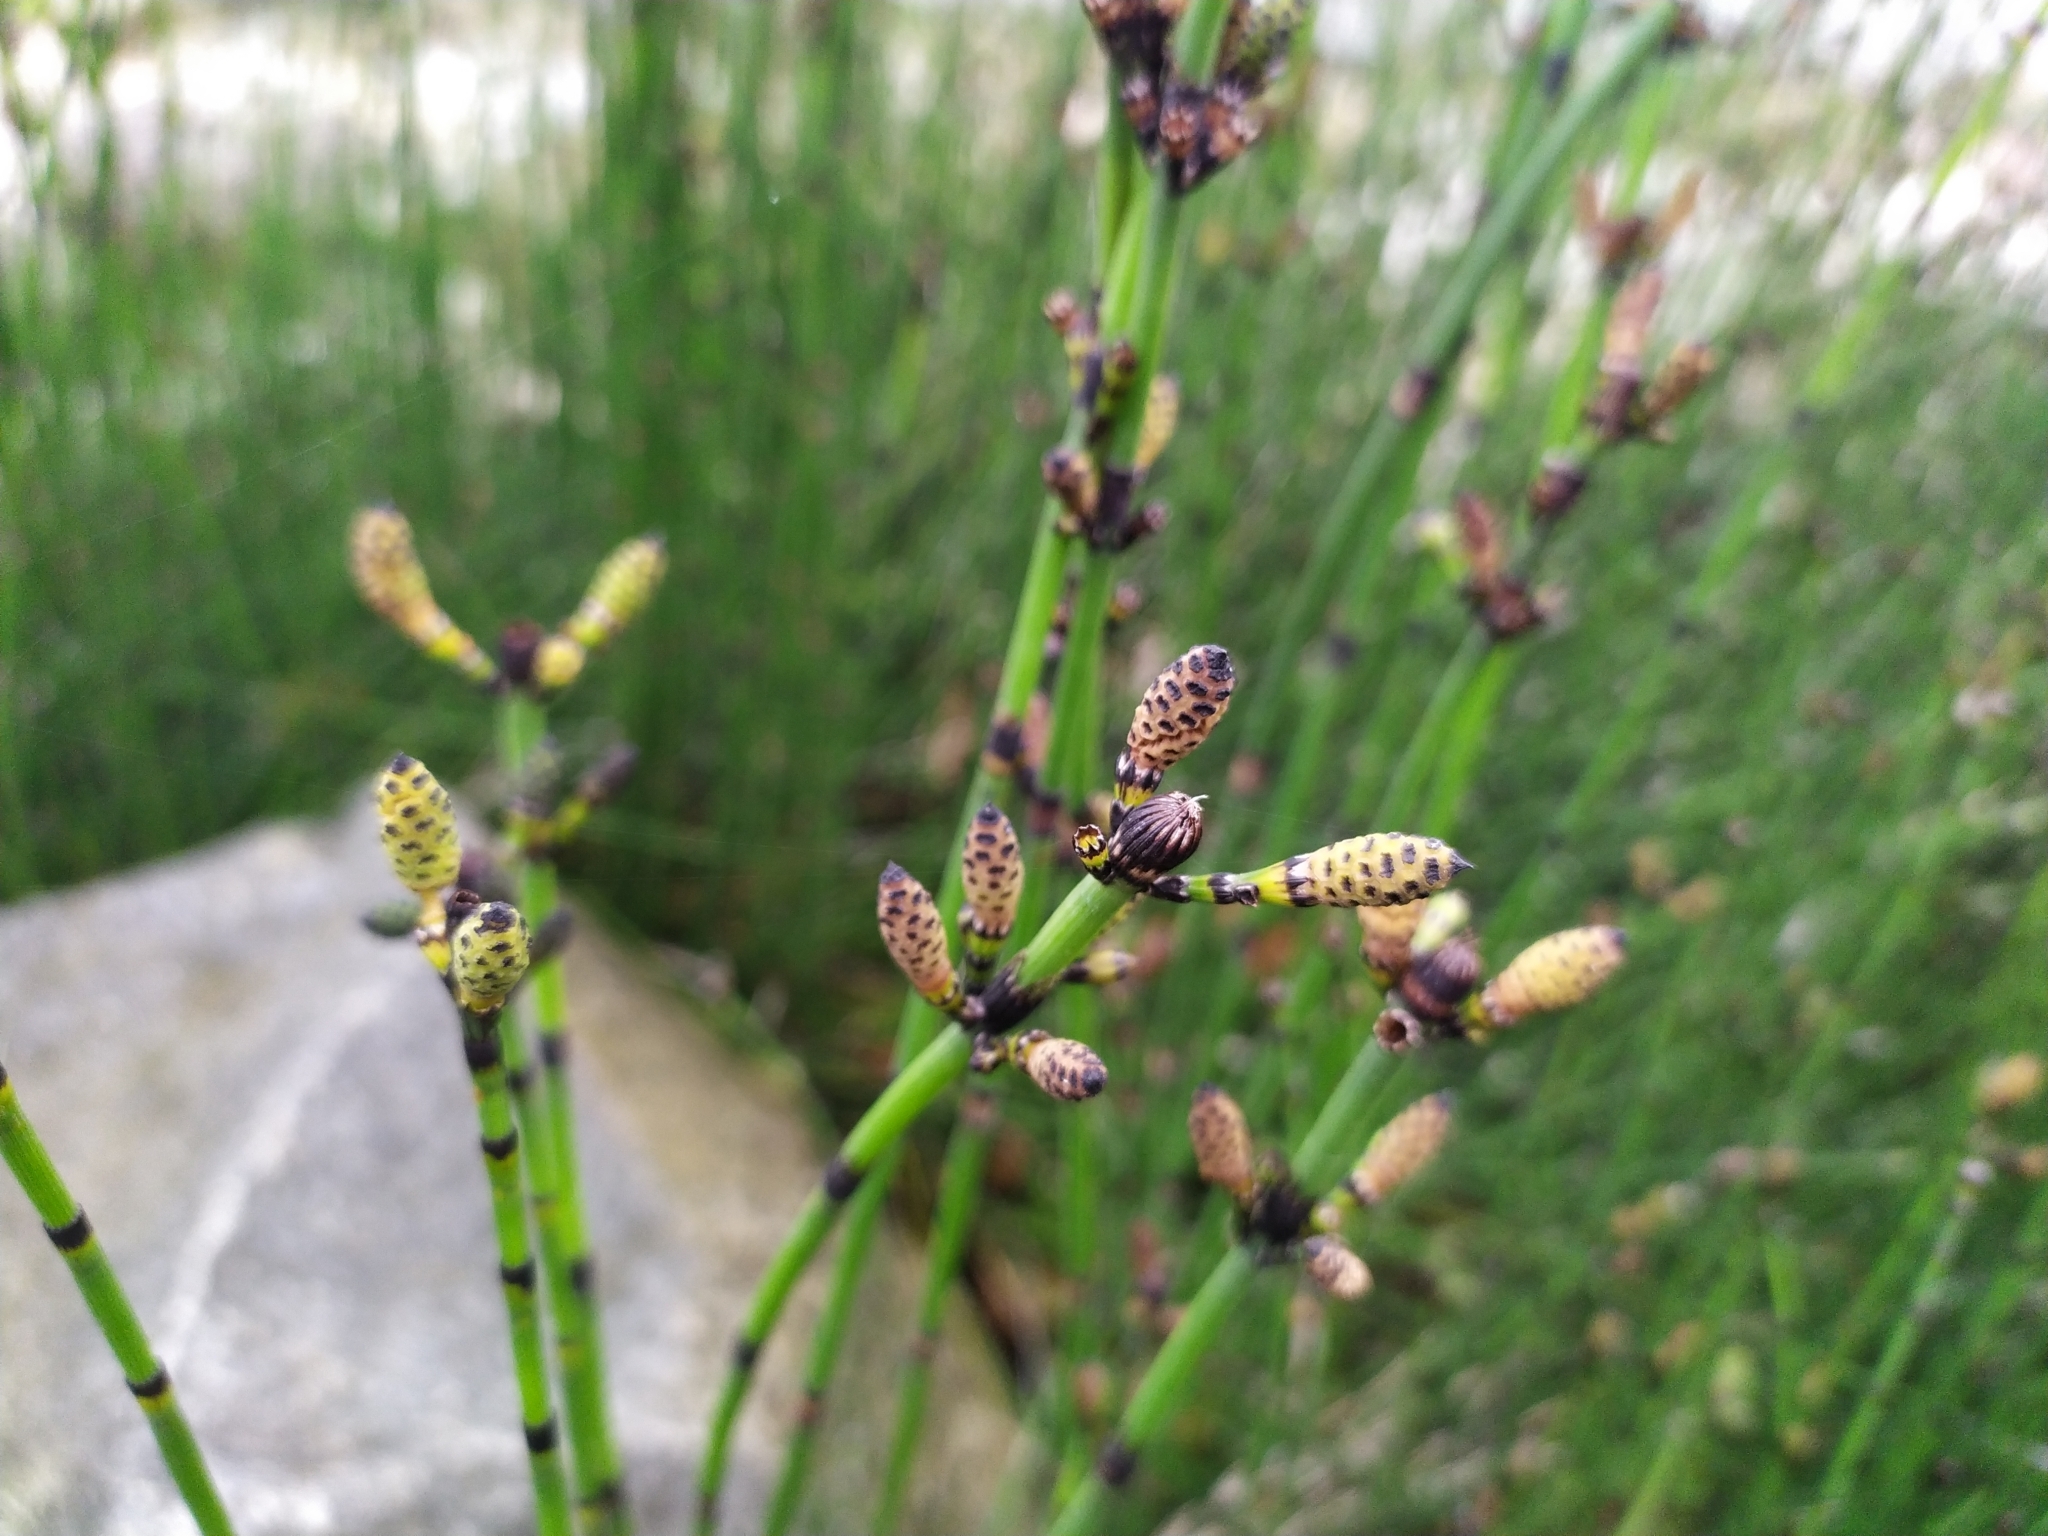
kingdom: Plantae
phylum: Tracheophyta
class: Polypodiopsida
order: Equisetales
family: Equisetaceae
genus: Equisetum
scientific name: Equisetum hyemale
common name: Rough horsetail
